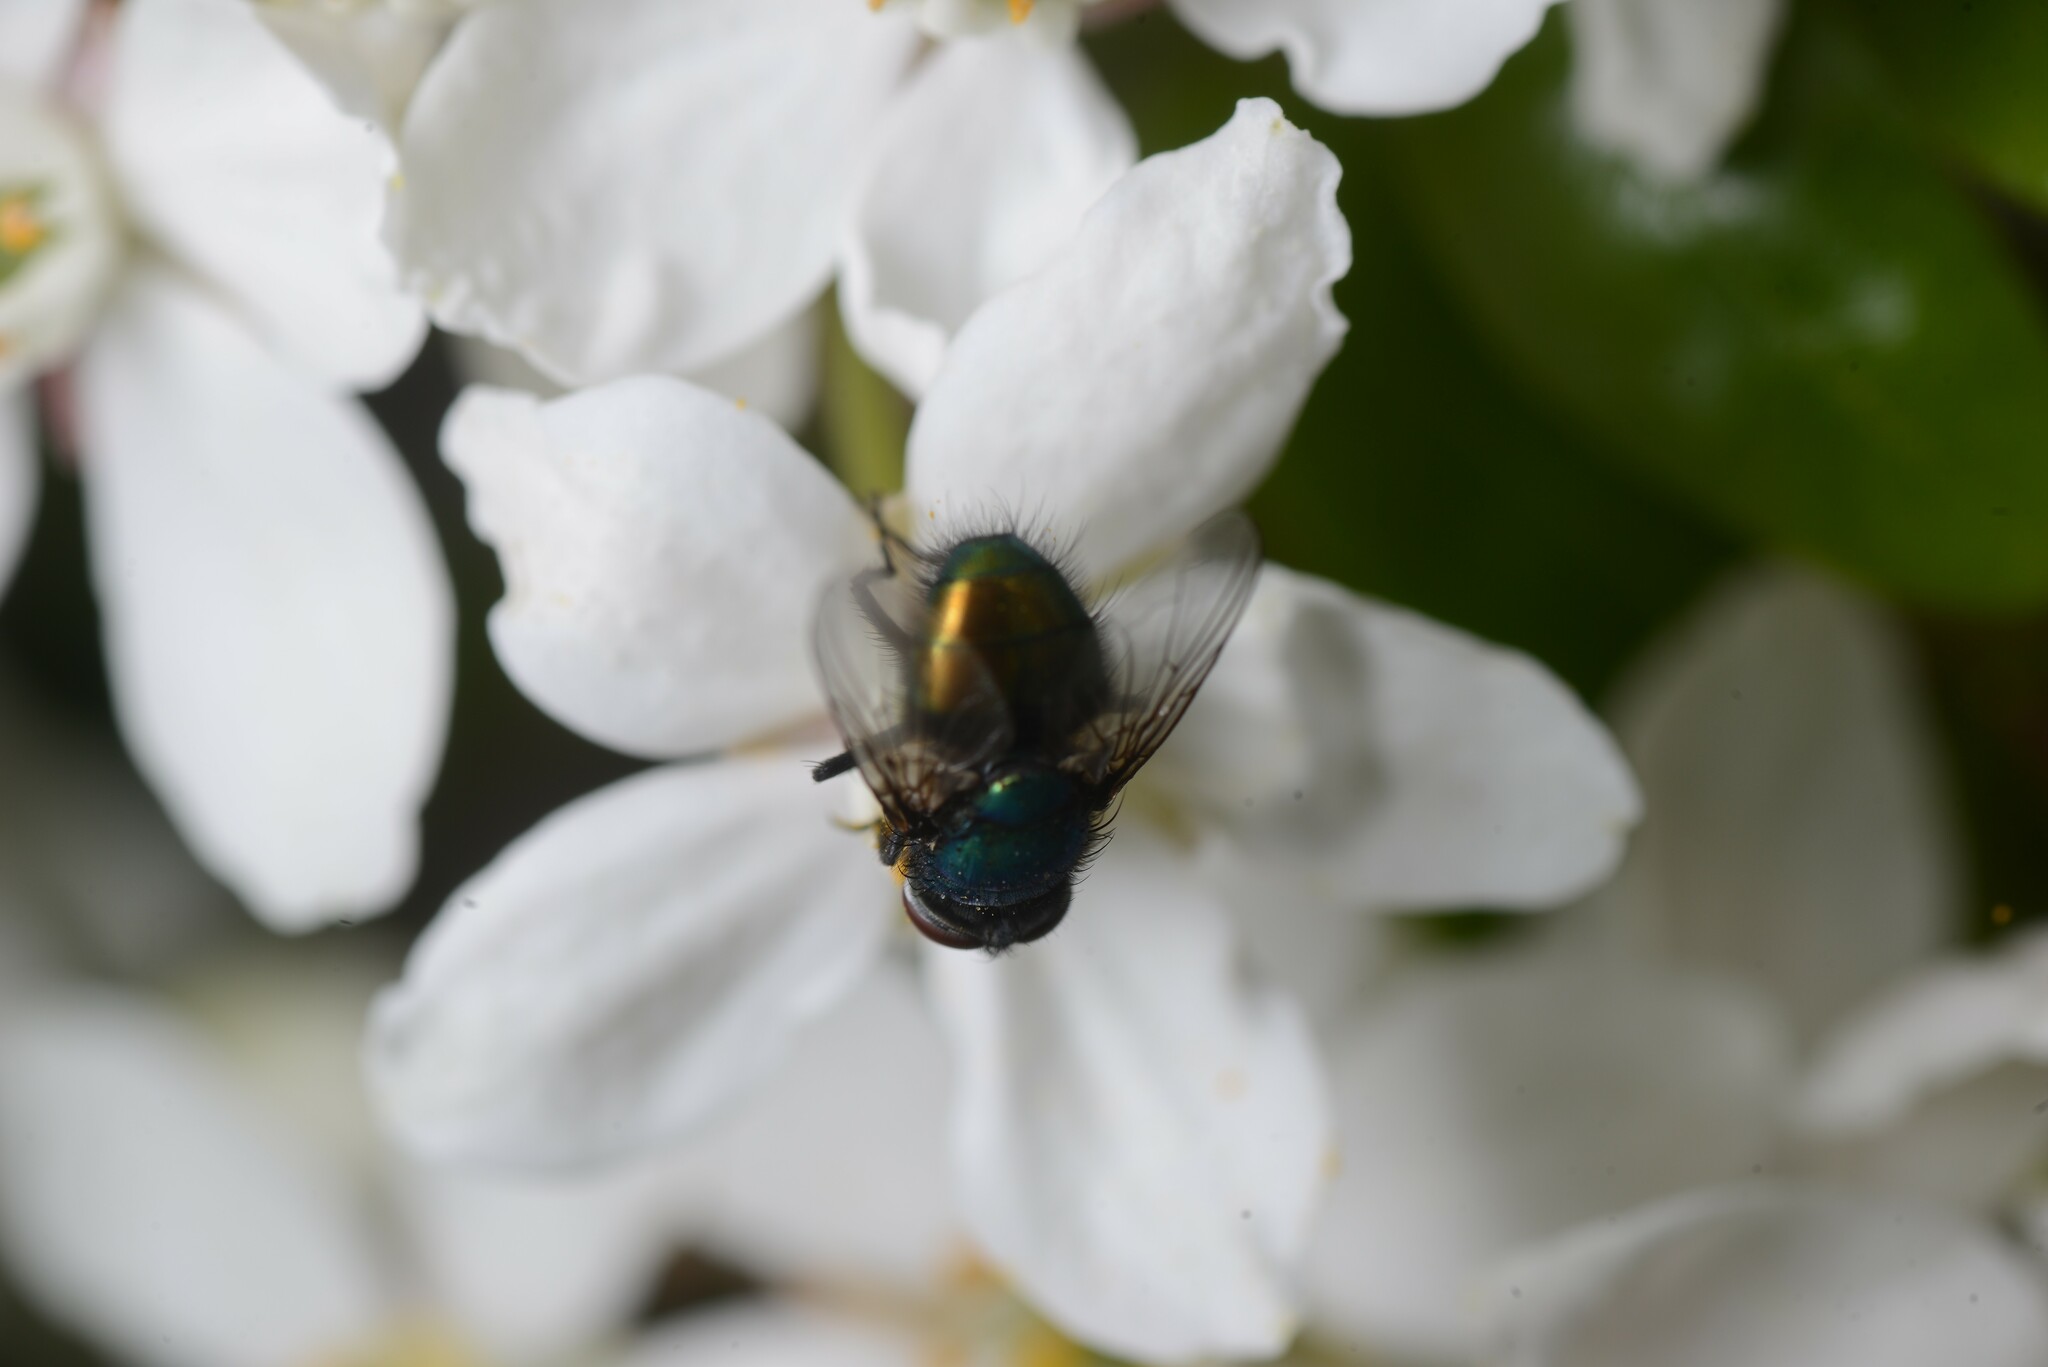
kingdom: Animalia
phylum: Arthropoda
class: Insecta
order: Diptera
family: Calliphoridae
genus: Lucilia
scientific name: Lucilia sericata
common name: Blow fly
